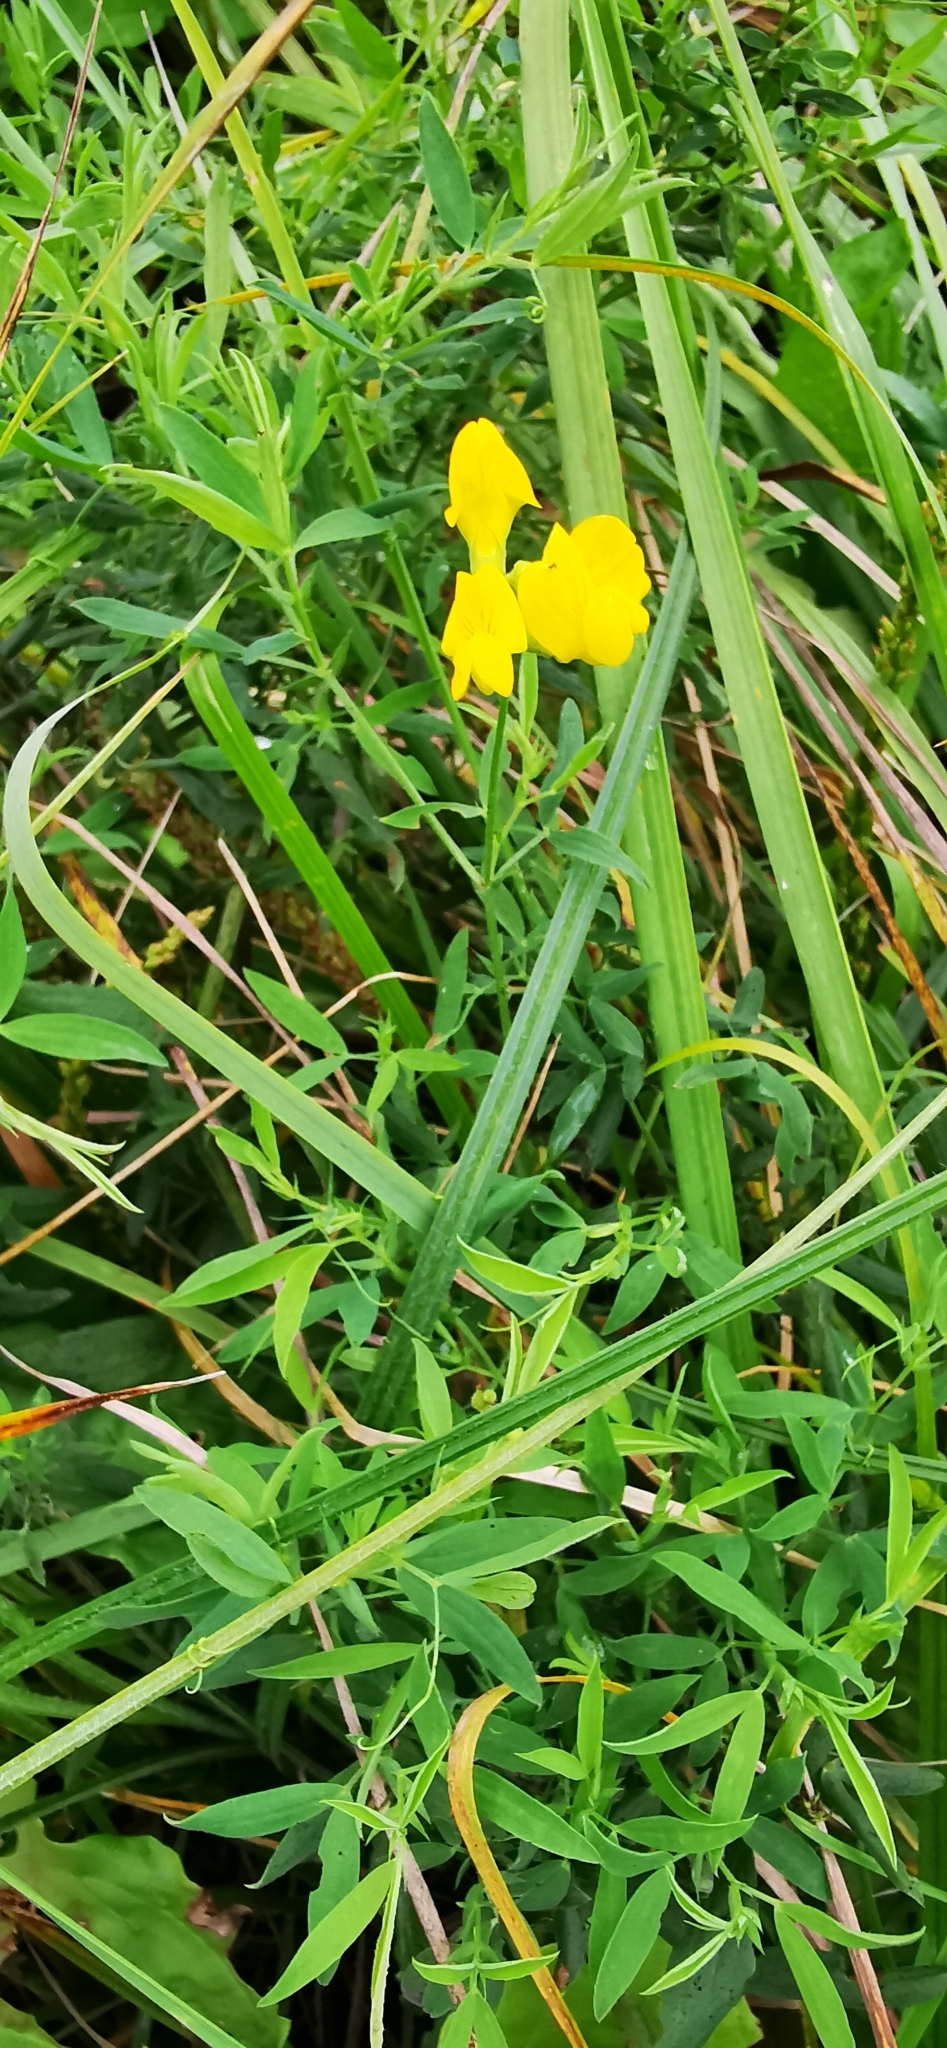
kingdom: Plantae
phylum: Tracheophyta
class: Magnoliopsida
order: Fabales
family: Fabaceae
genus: Lathyrus
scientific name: Lathyrus pratensis
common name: Meadow vetchling
